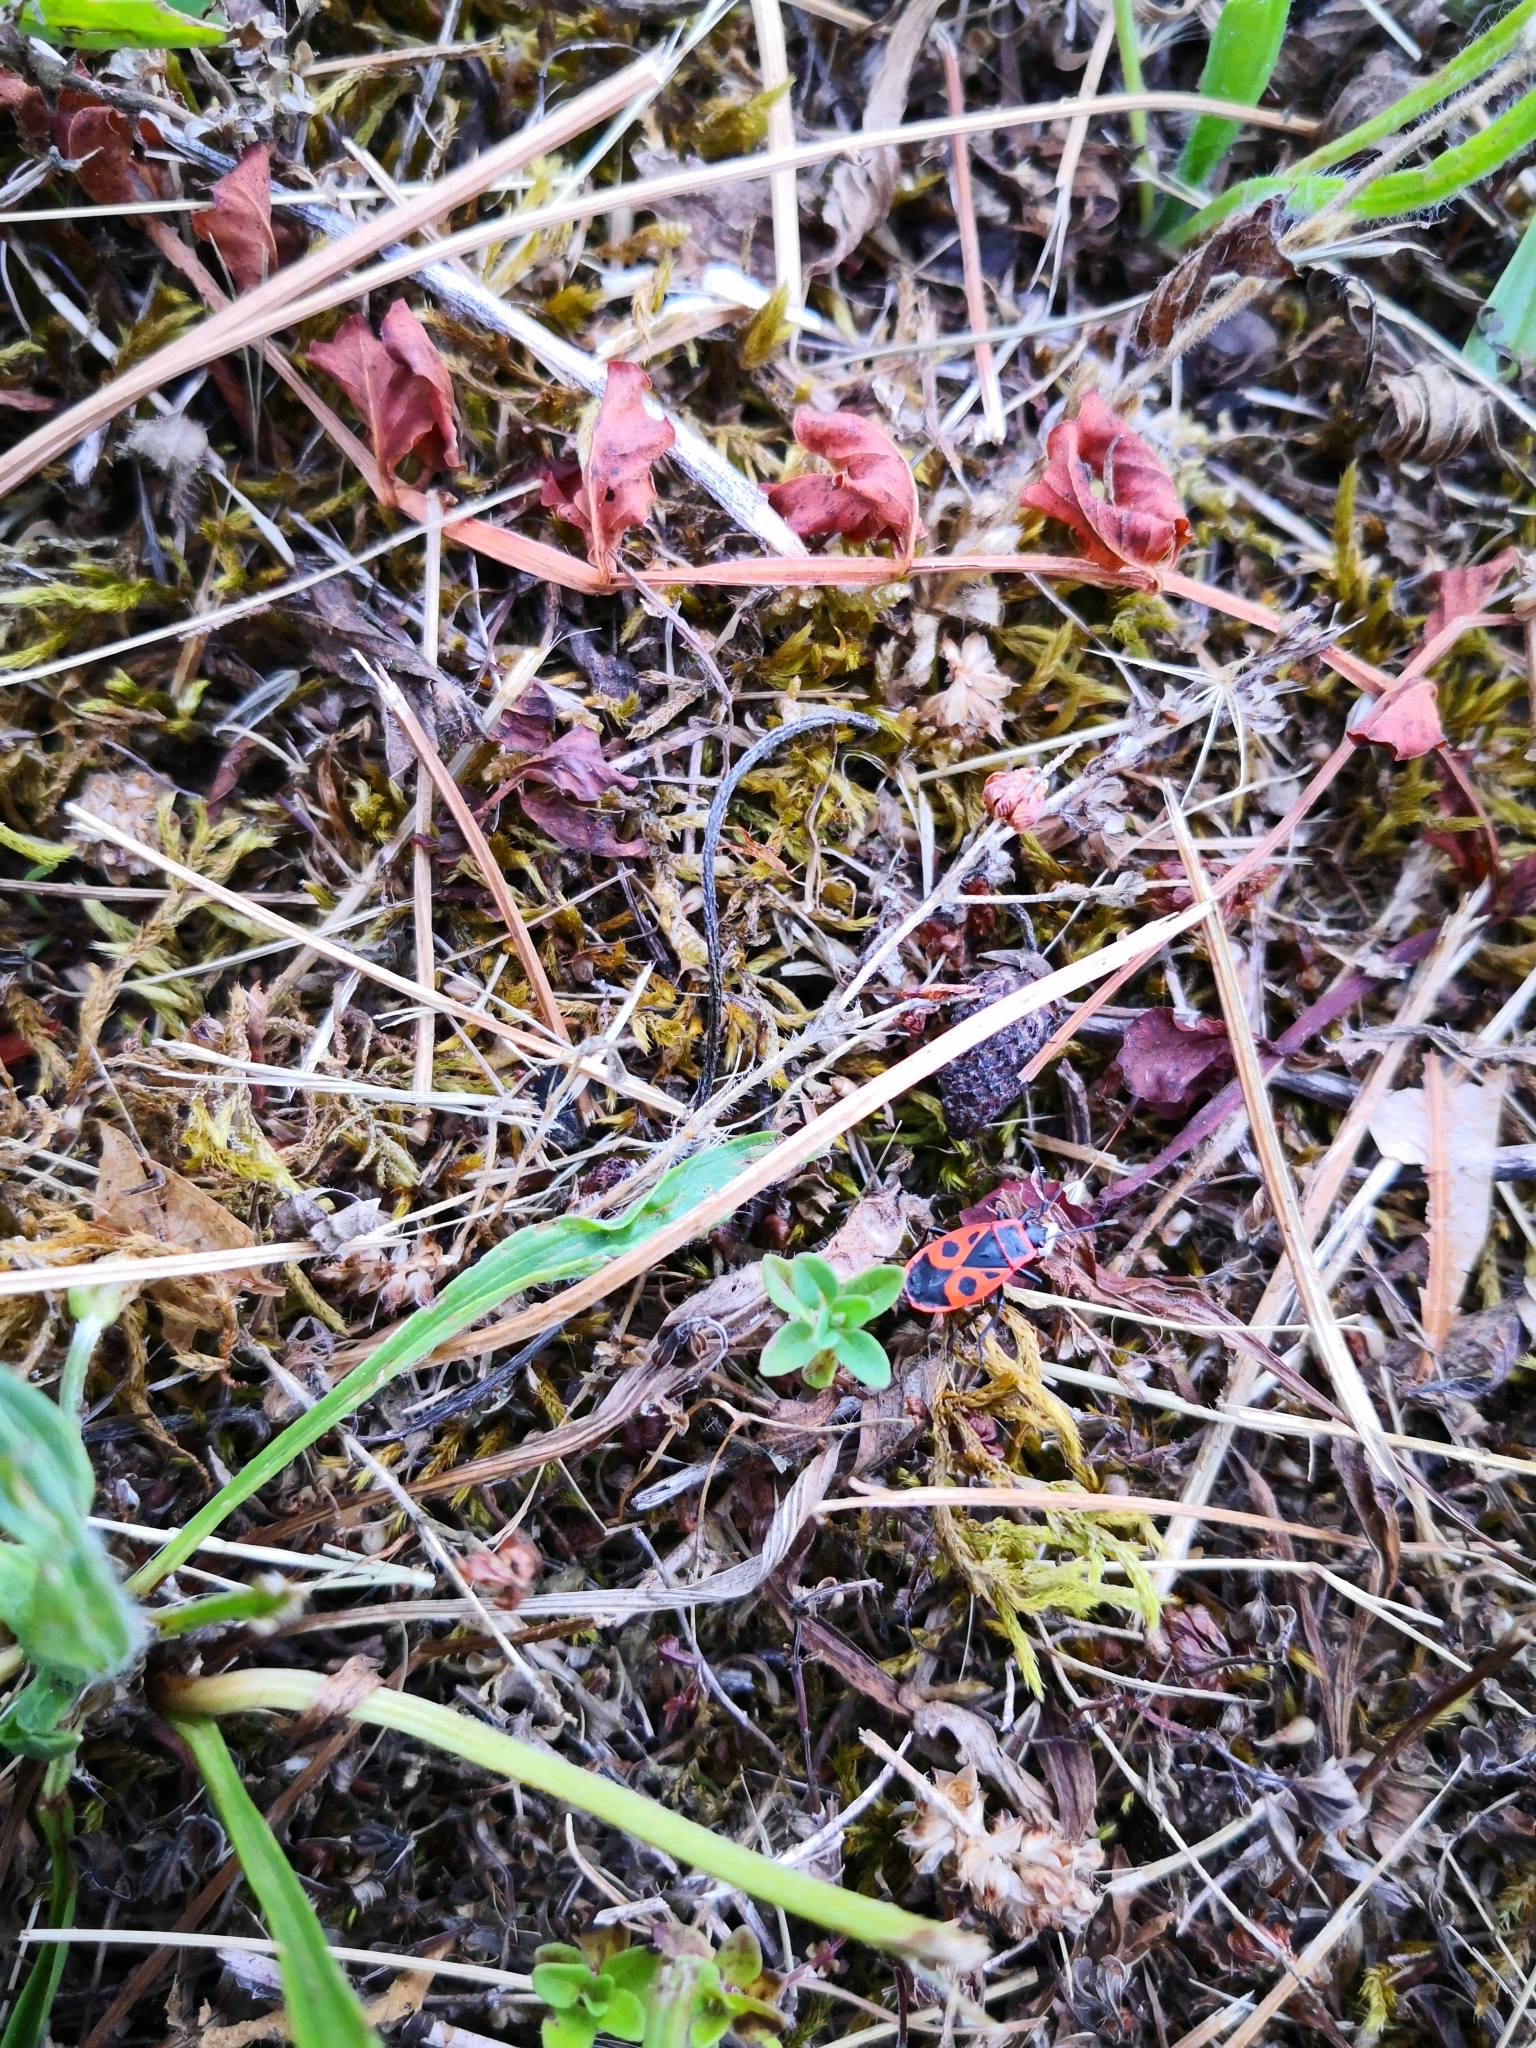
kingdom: Animalia
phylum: Arthropoda
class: Insecta
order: Hemiptera
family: Pyrrhocoridae
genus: Pyrrhocoris
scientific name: Pyrrhocoris apterus
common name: Firebug
